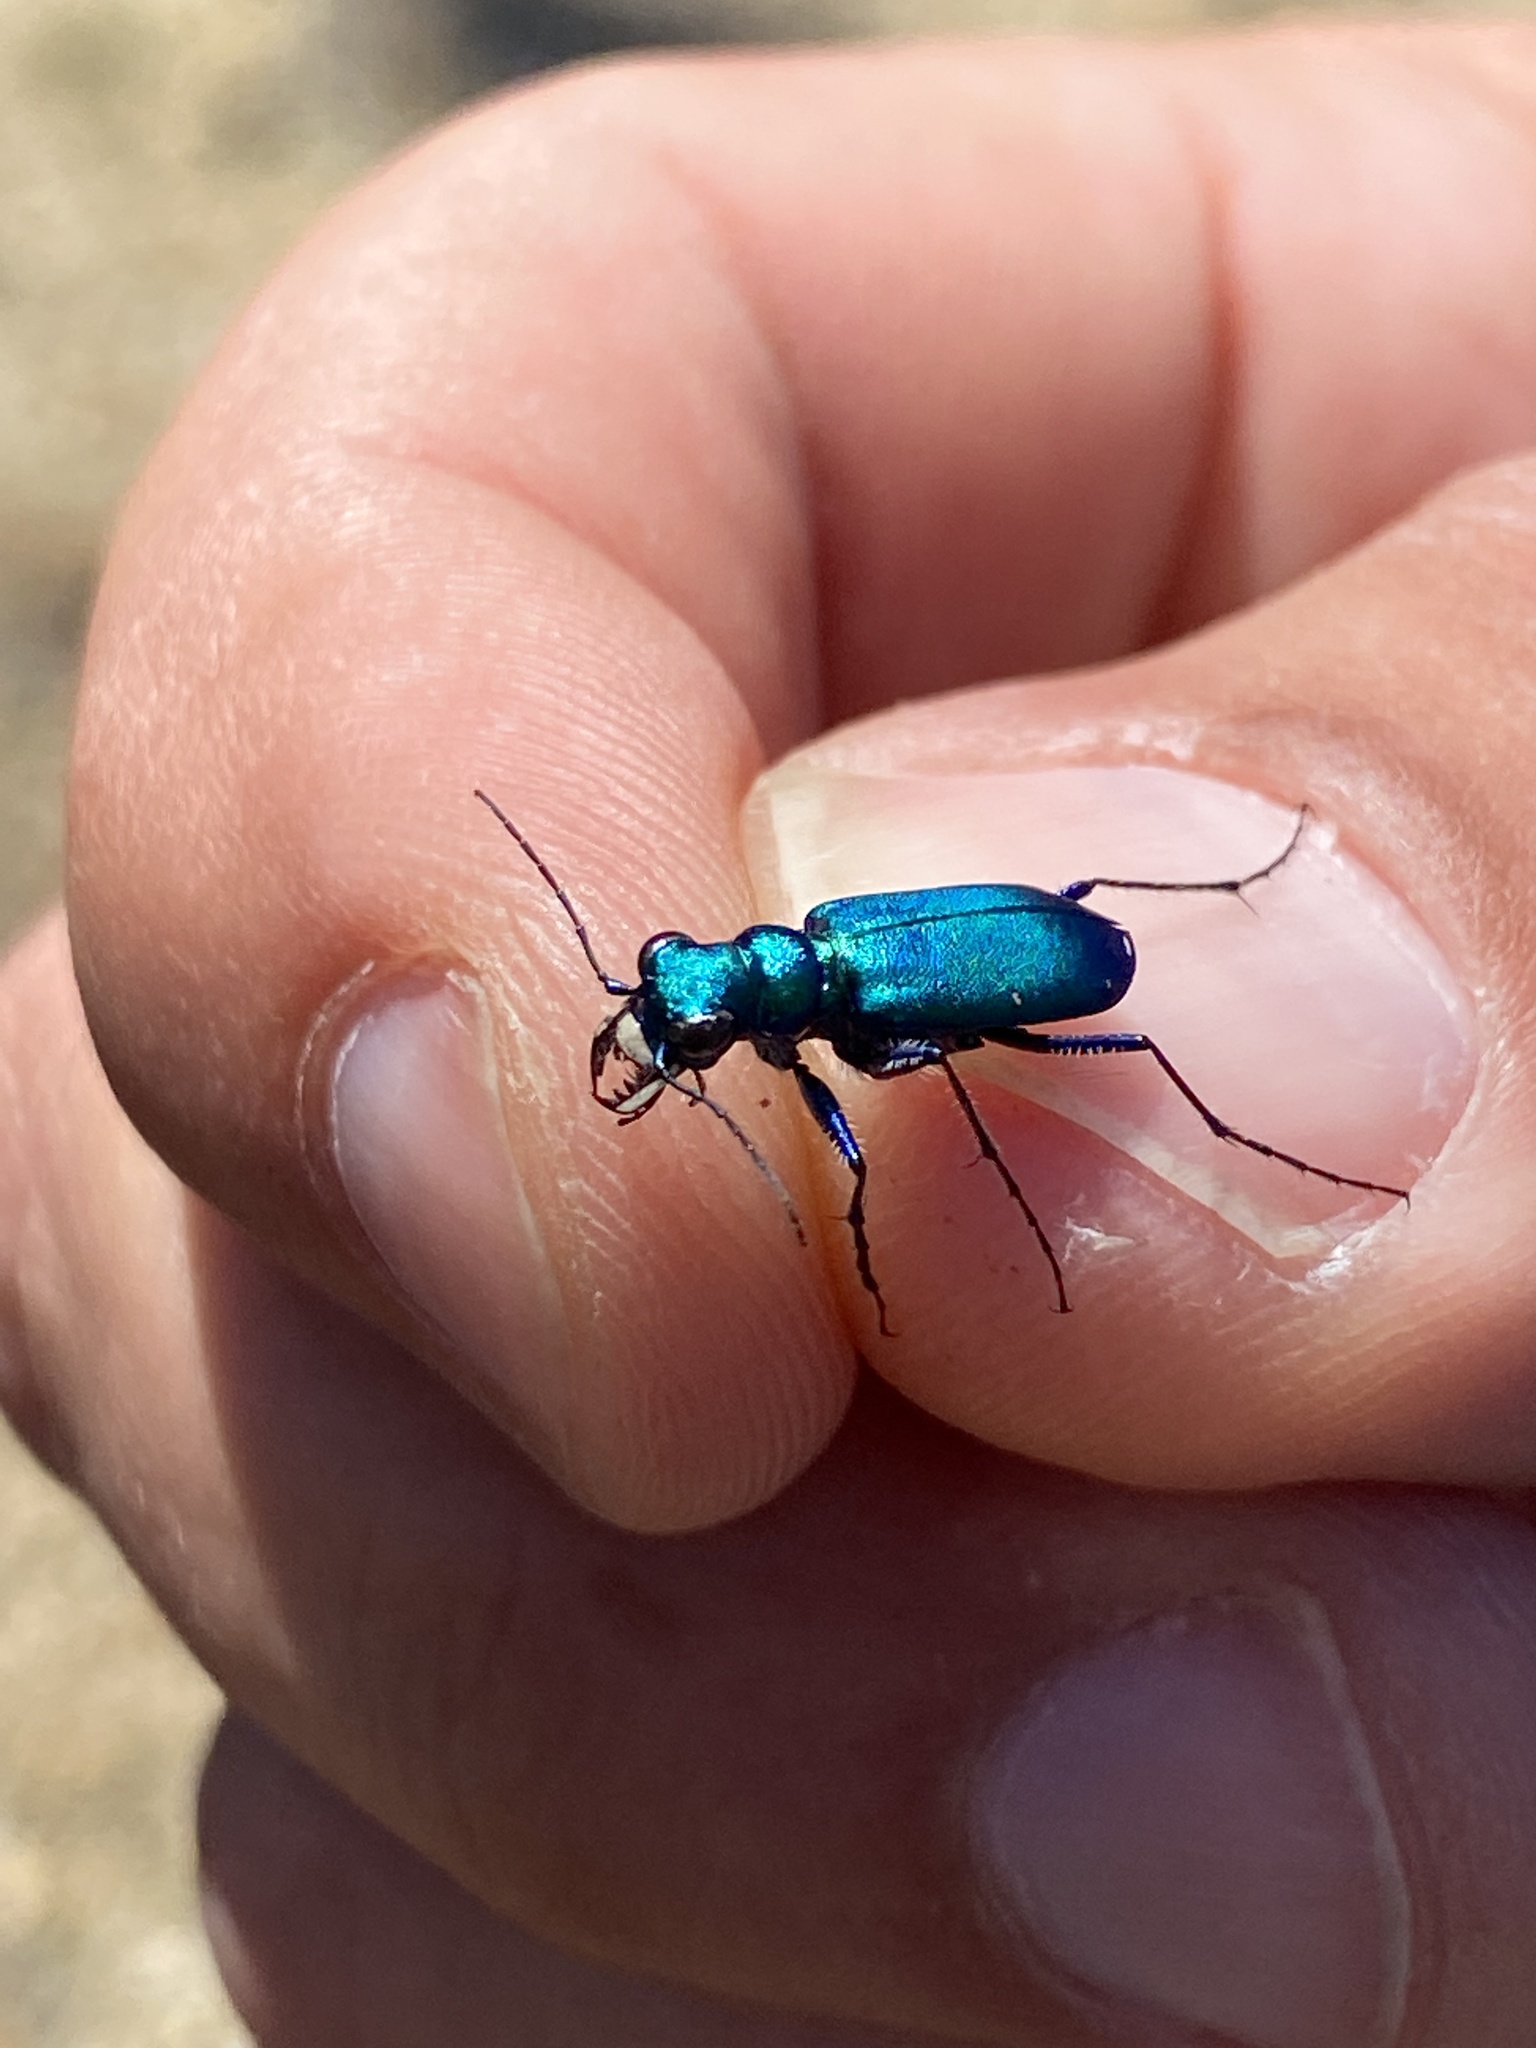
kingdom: Animalia
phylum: Arthropoda
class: Insecta
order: Coleoptera
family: Carabidae
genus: Cicindela
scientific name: Cicindela sexguttata
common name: Six-spotted tiger beetle
